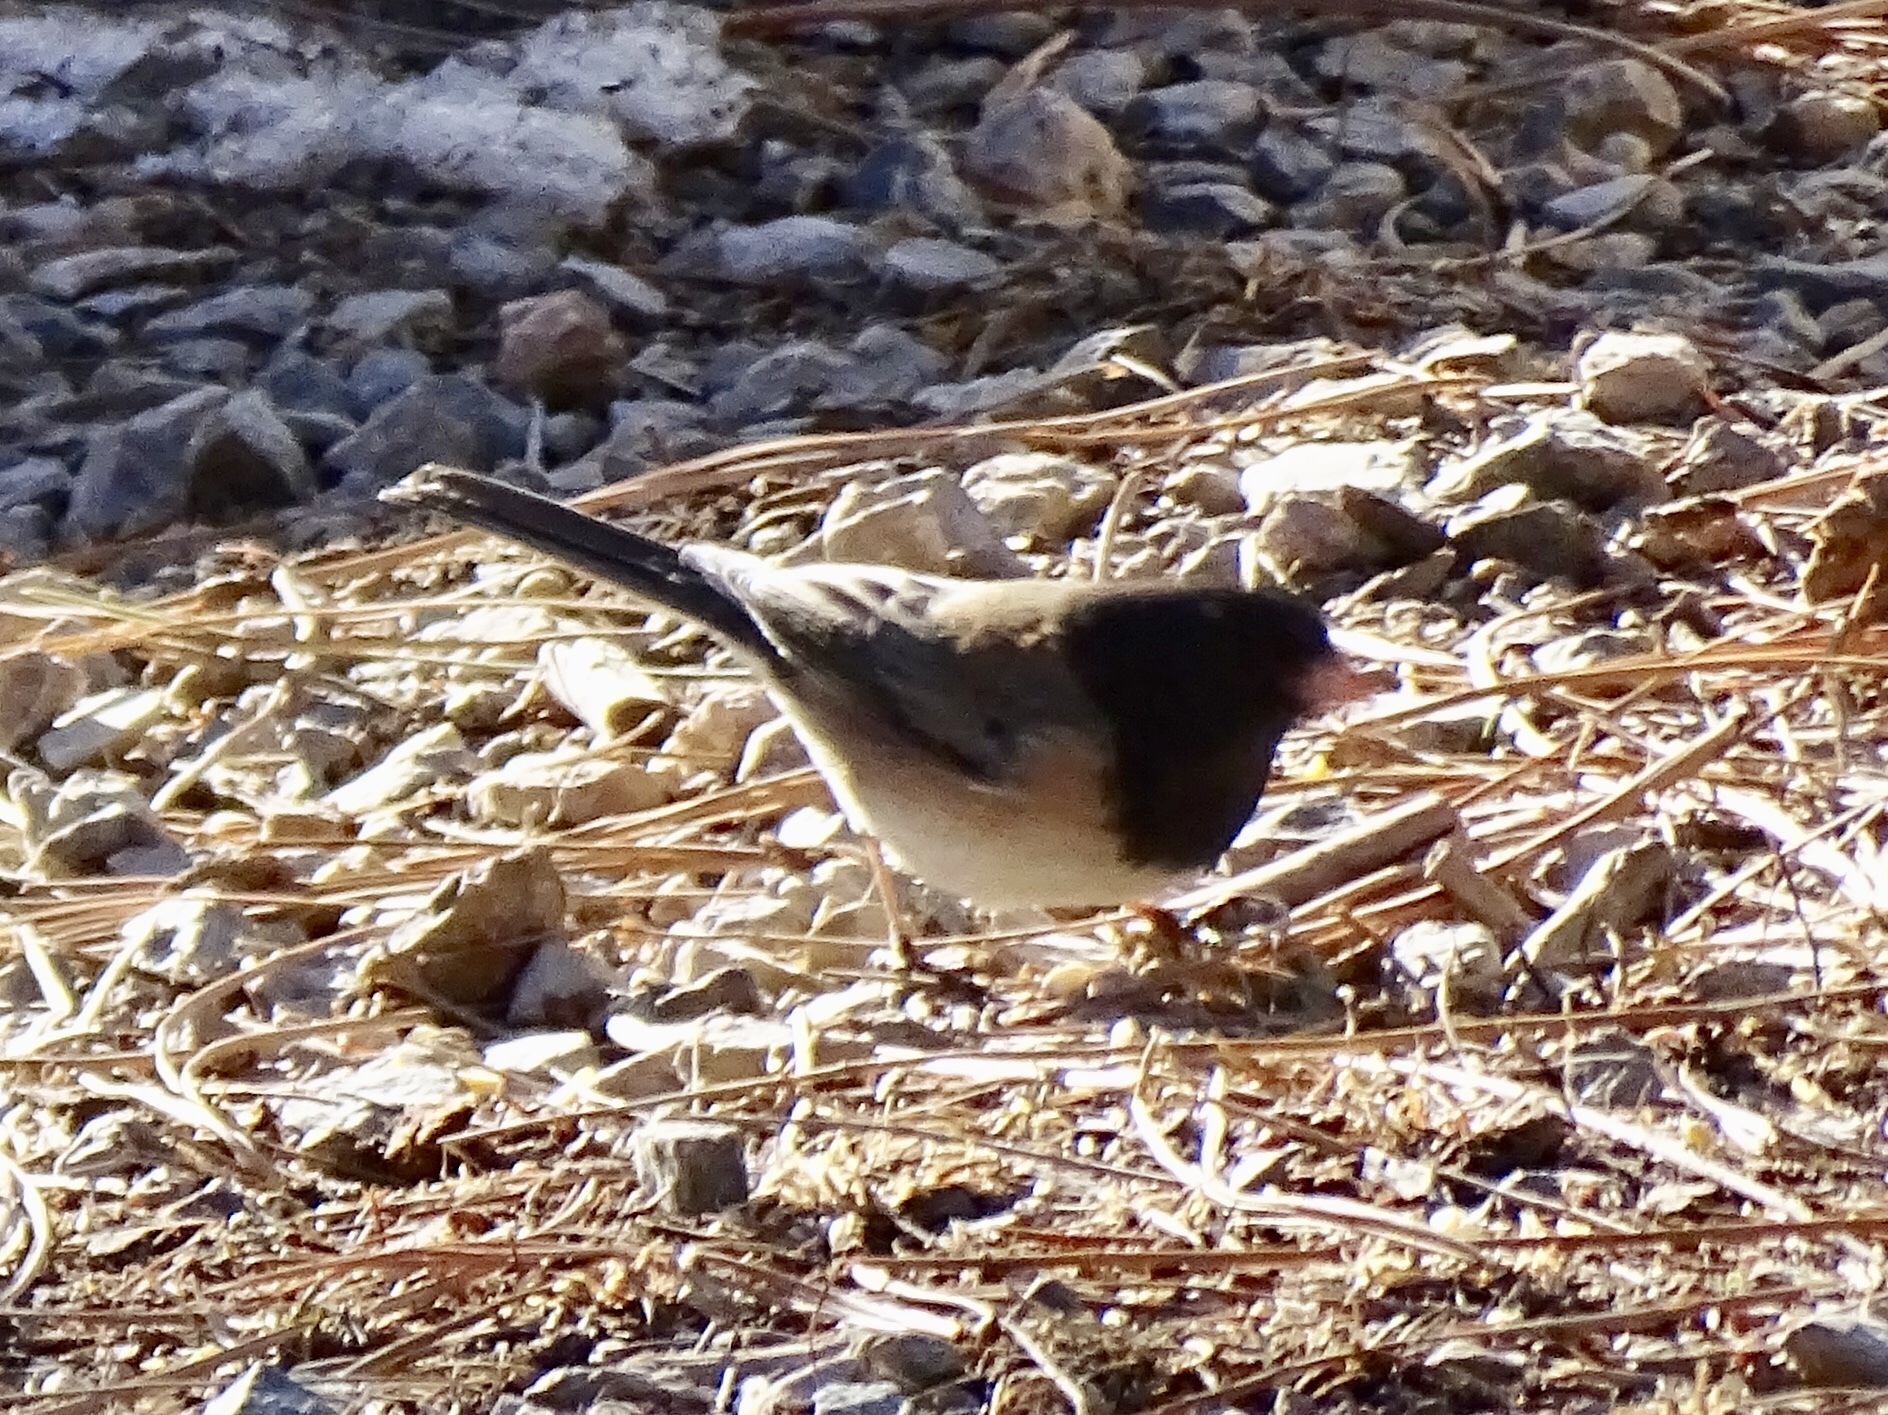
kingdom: Animalia
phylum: Chordata
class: Aves
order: Passeriformes
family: Passerellidae
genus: Junco
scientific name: Junco hyemalis
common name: Dark-eyed junco
